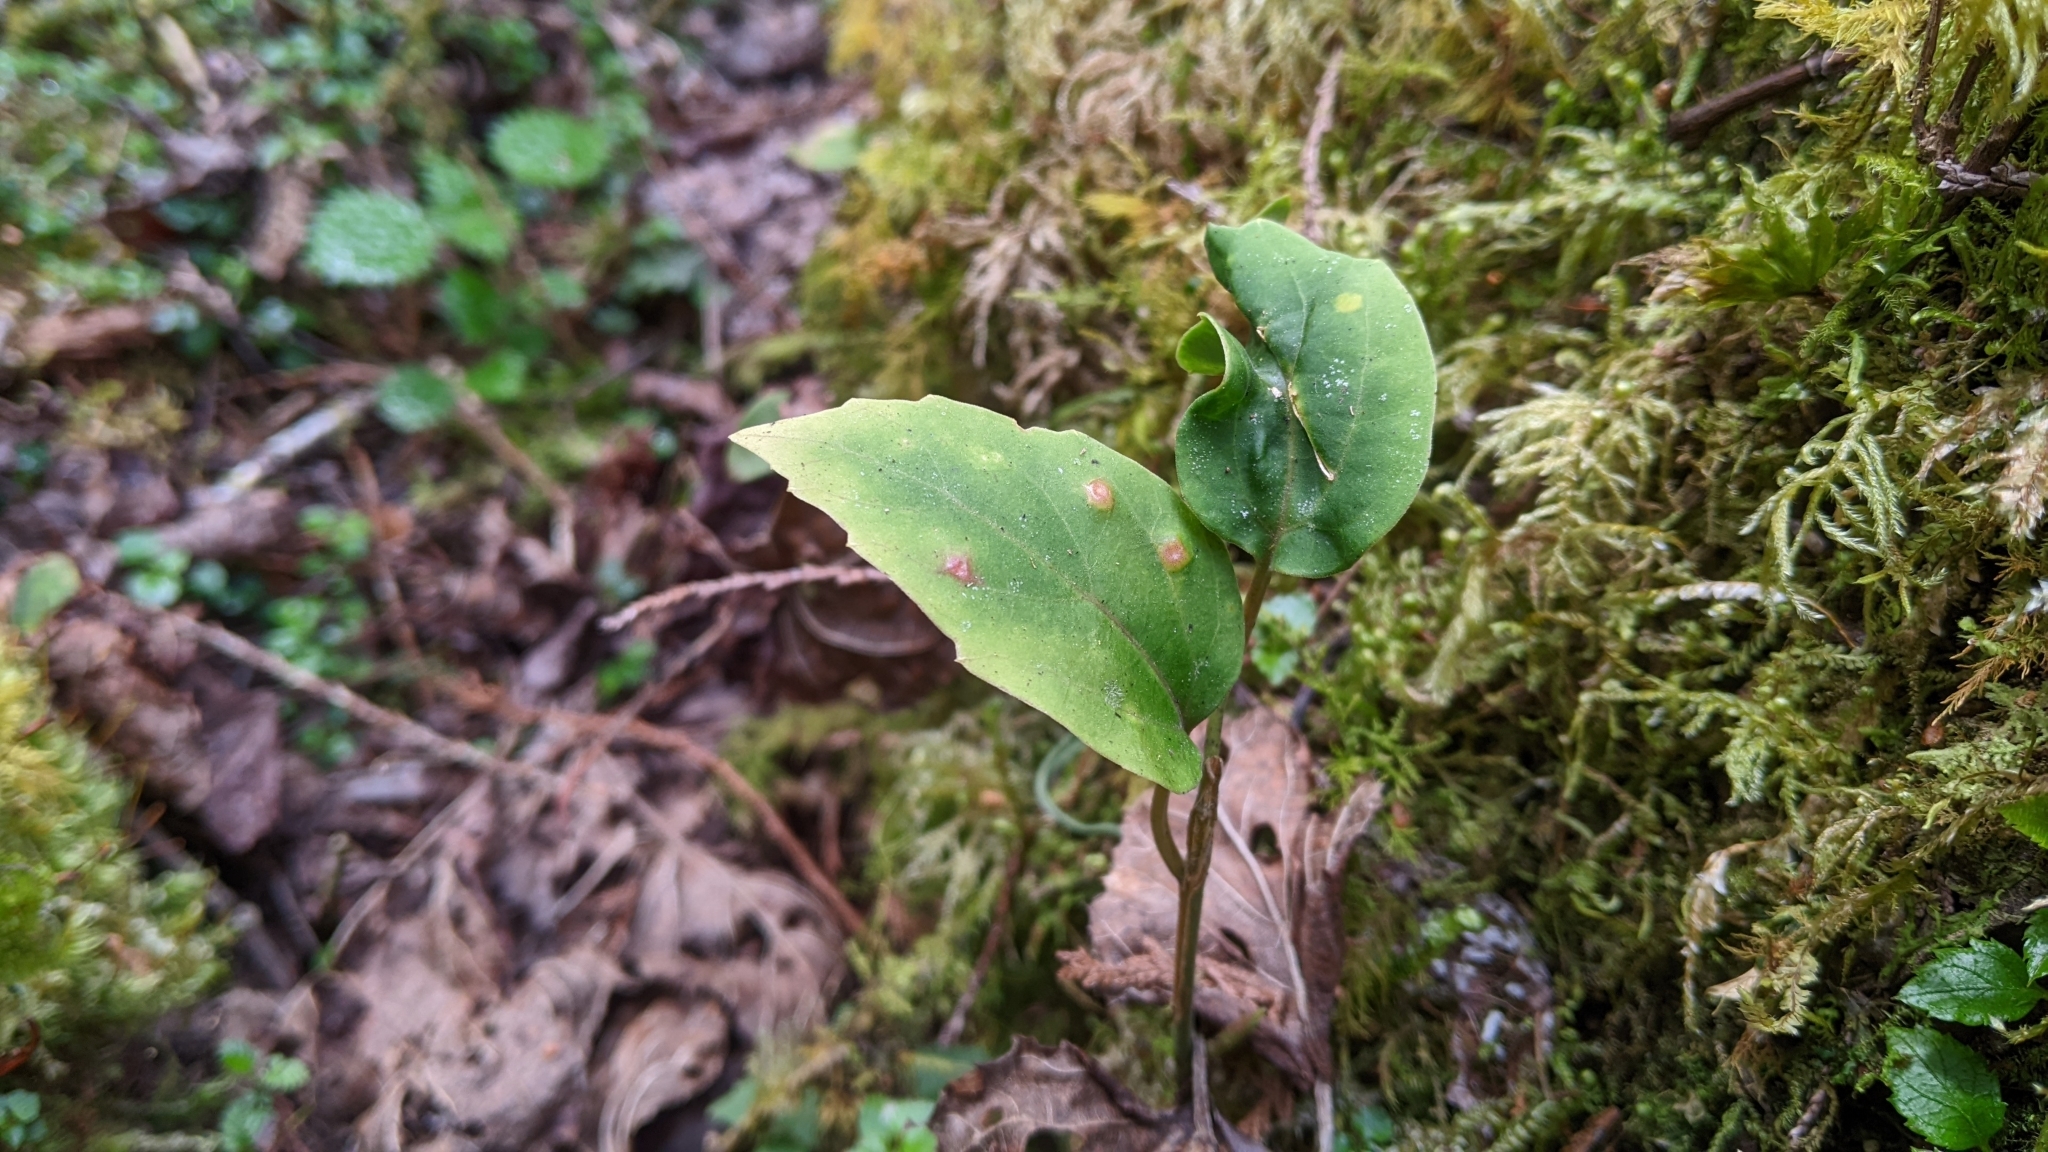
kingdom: Plantae
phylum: Tracheophyta
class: Magnoliopsida
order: Buxales
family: Buxaceae
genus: Pachysandra
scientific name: Pachysandra axillaris
